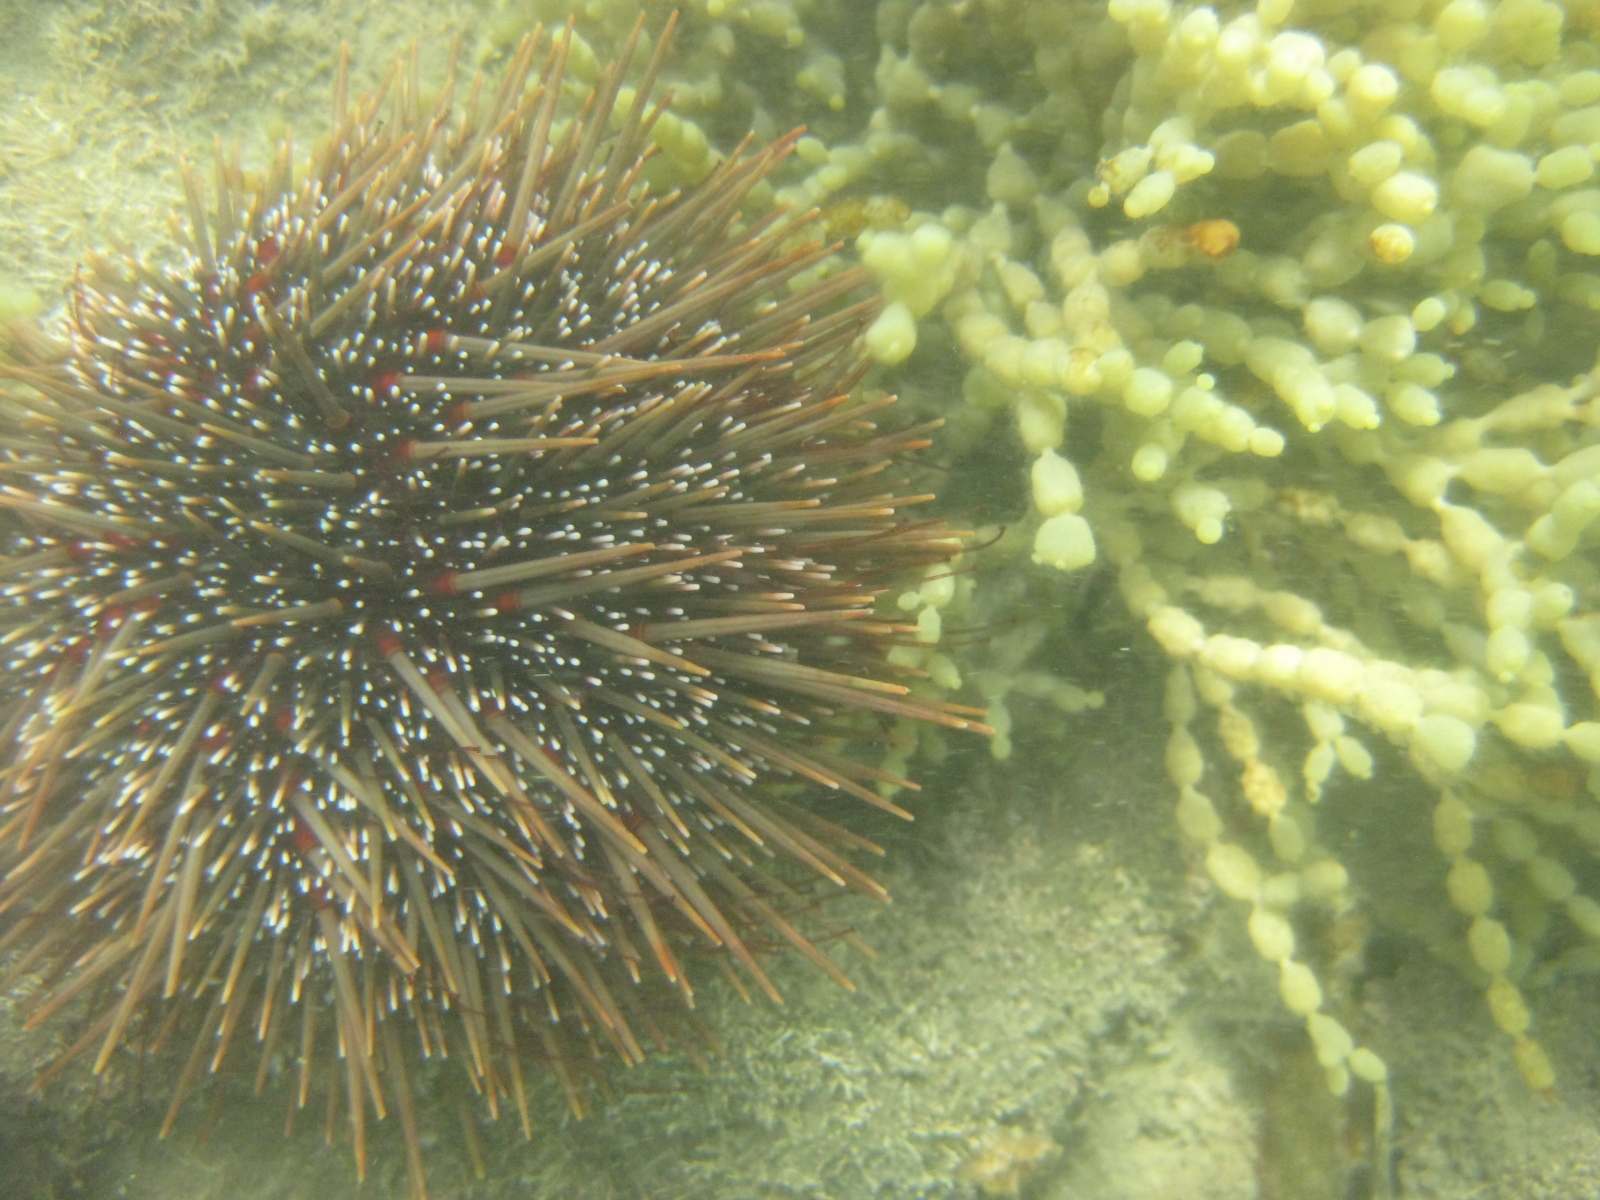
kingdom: Animalia
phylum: Echinodermata
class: Echinoidea
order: Camarodonta
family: Echinometridae
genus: Evechinus
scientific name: Evechinus chloroticus
